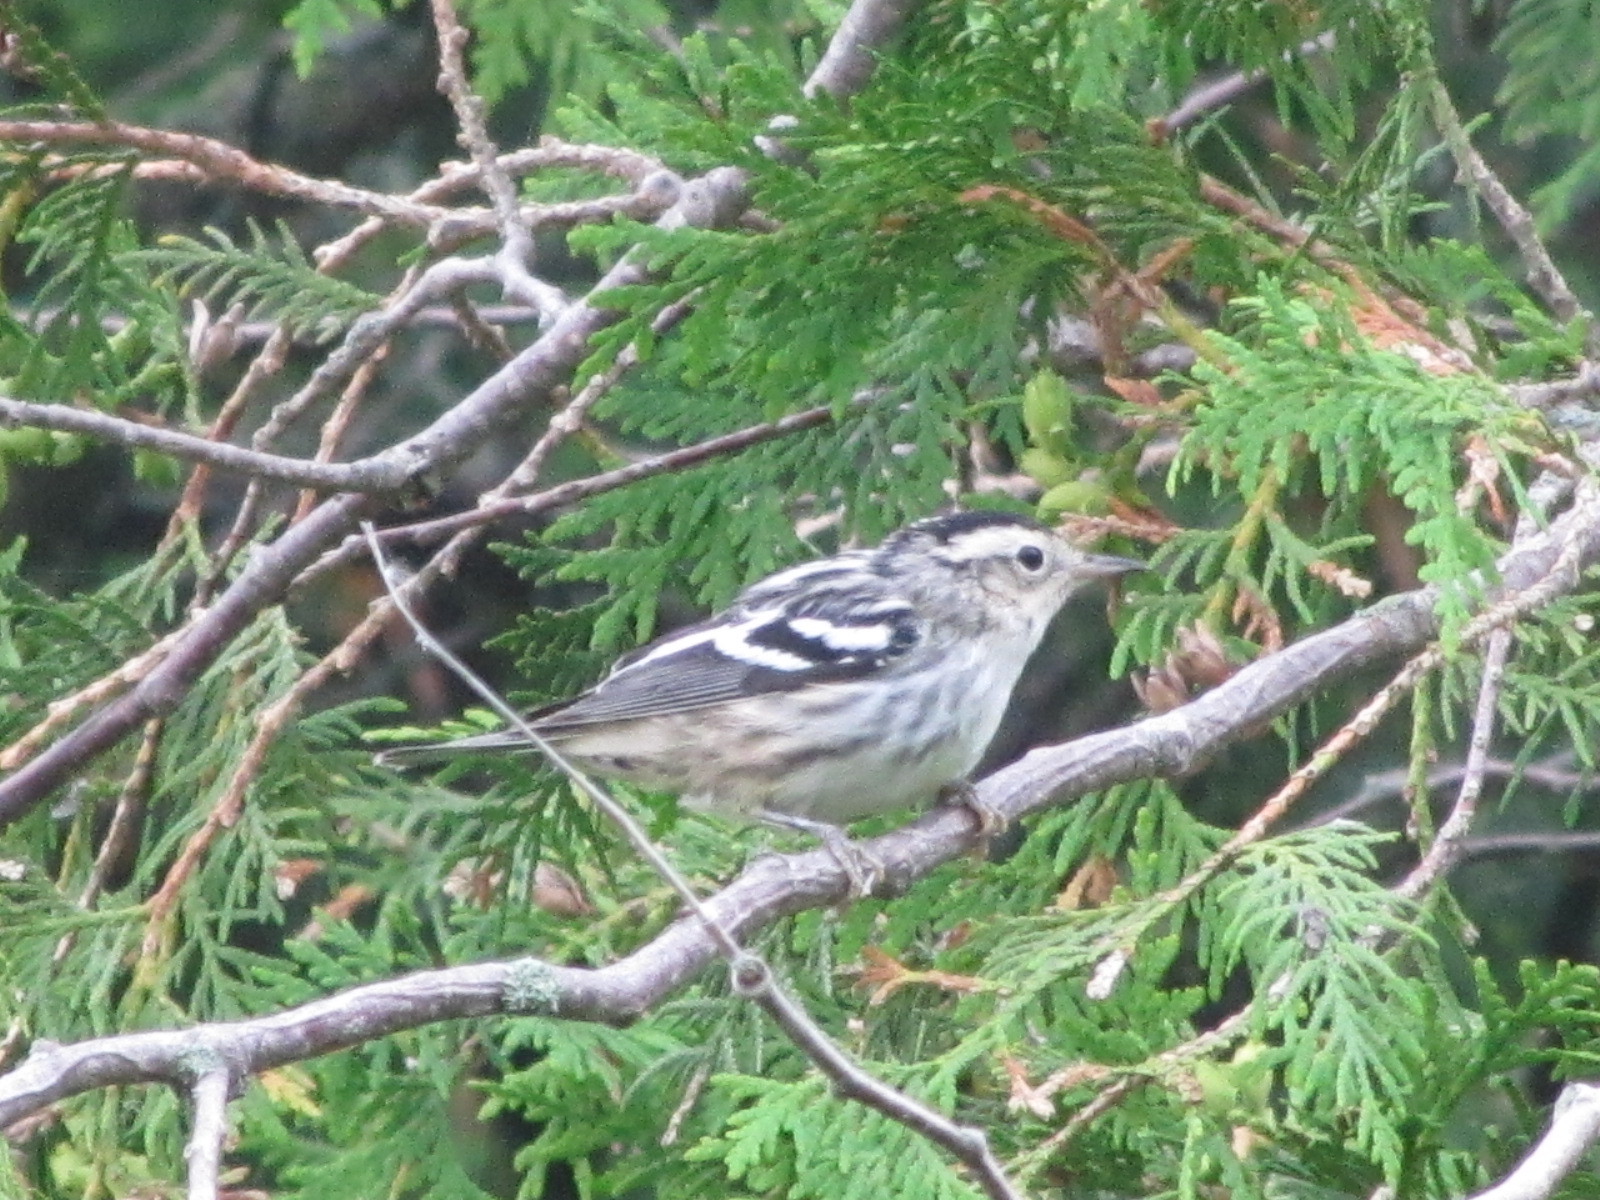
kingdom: Animalia
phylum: Chordata
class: Aves
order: Passeriformes
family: Parulidae
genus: Mniotilta
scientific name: Mniotilta varia
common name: Black-and-white warbler
